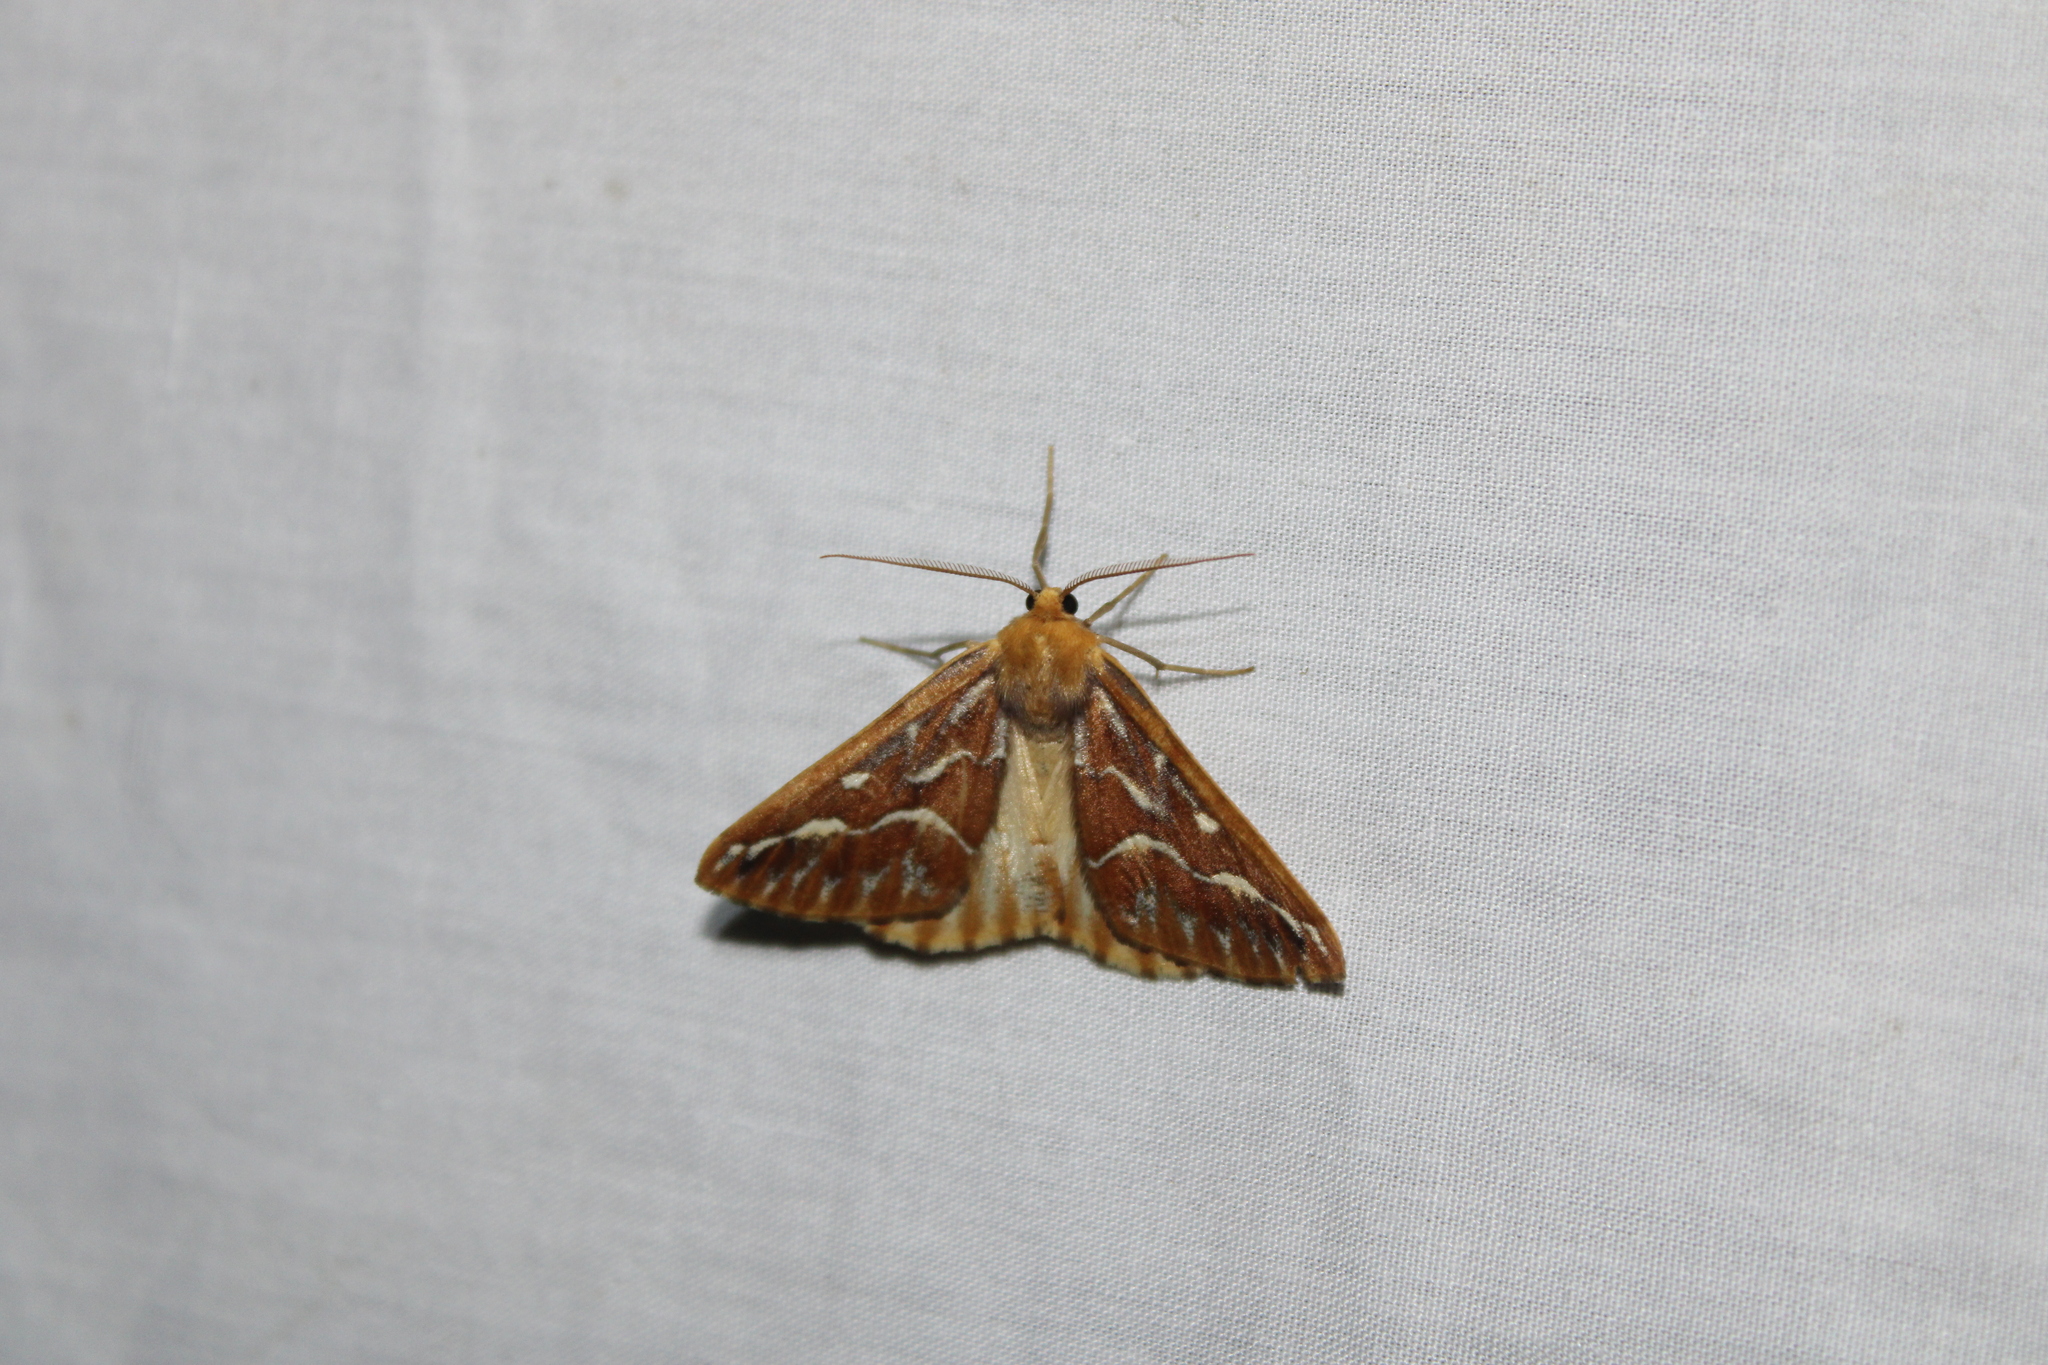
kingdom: Animalia
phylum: Arthropoda
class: Insecta
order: Lepidoptera
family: Geometridae
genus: Caripeta
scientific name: Caripeta piniata
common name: Northern pine looper moth
